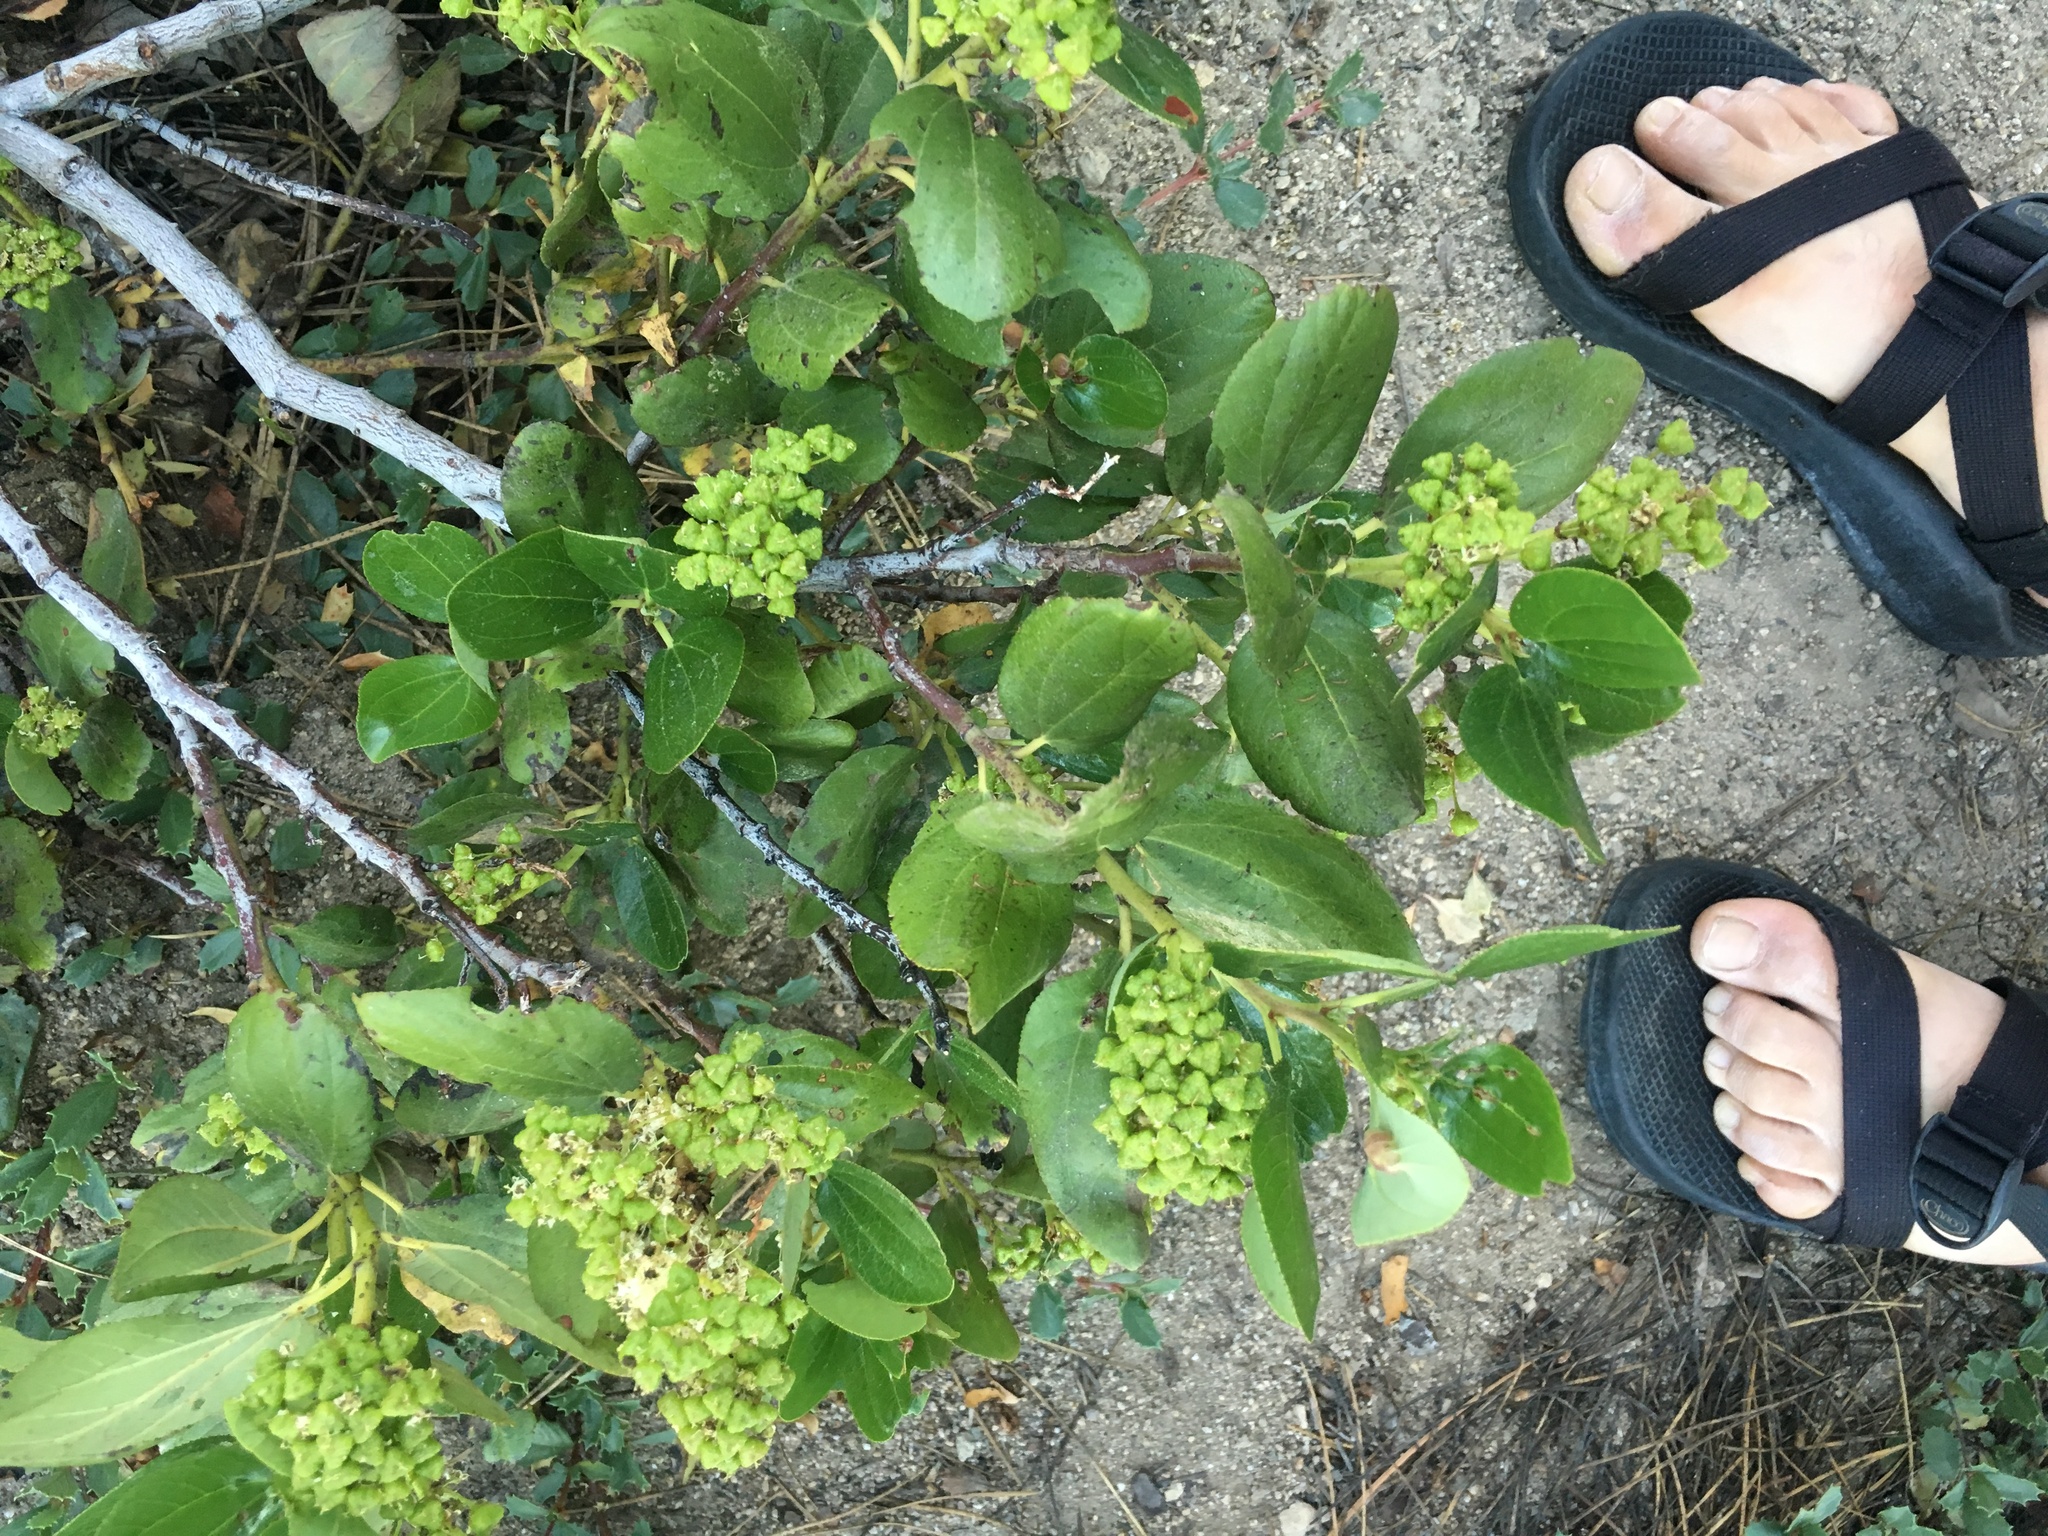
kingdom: Plantae
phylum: Tracheophyta
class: Magnoliopsida
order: Rosales
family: Rhamnaceae
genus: Ceanothus
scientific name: Ceanothus velutinus
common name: Snowbrush
